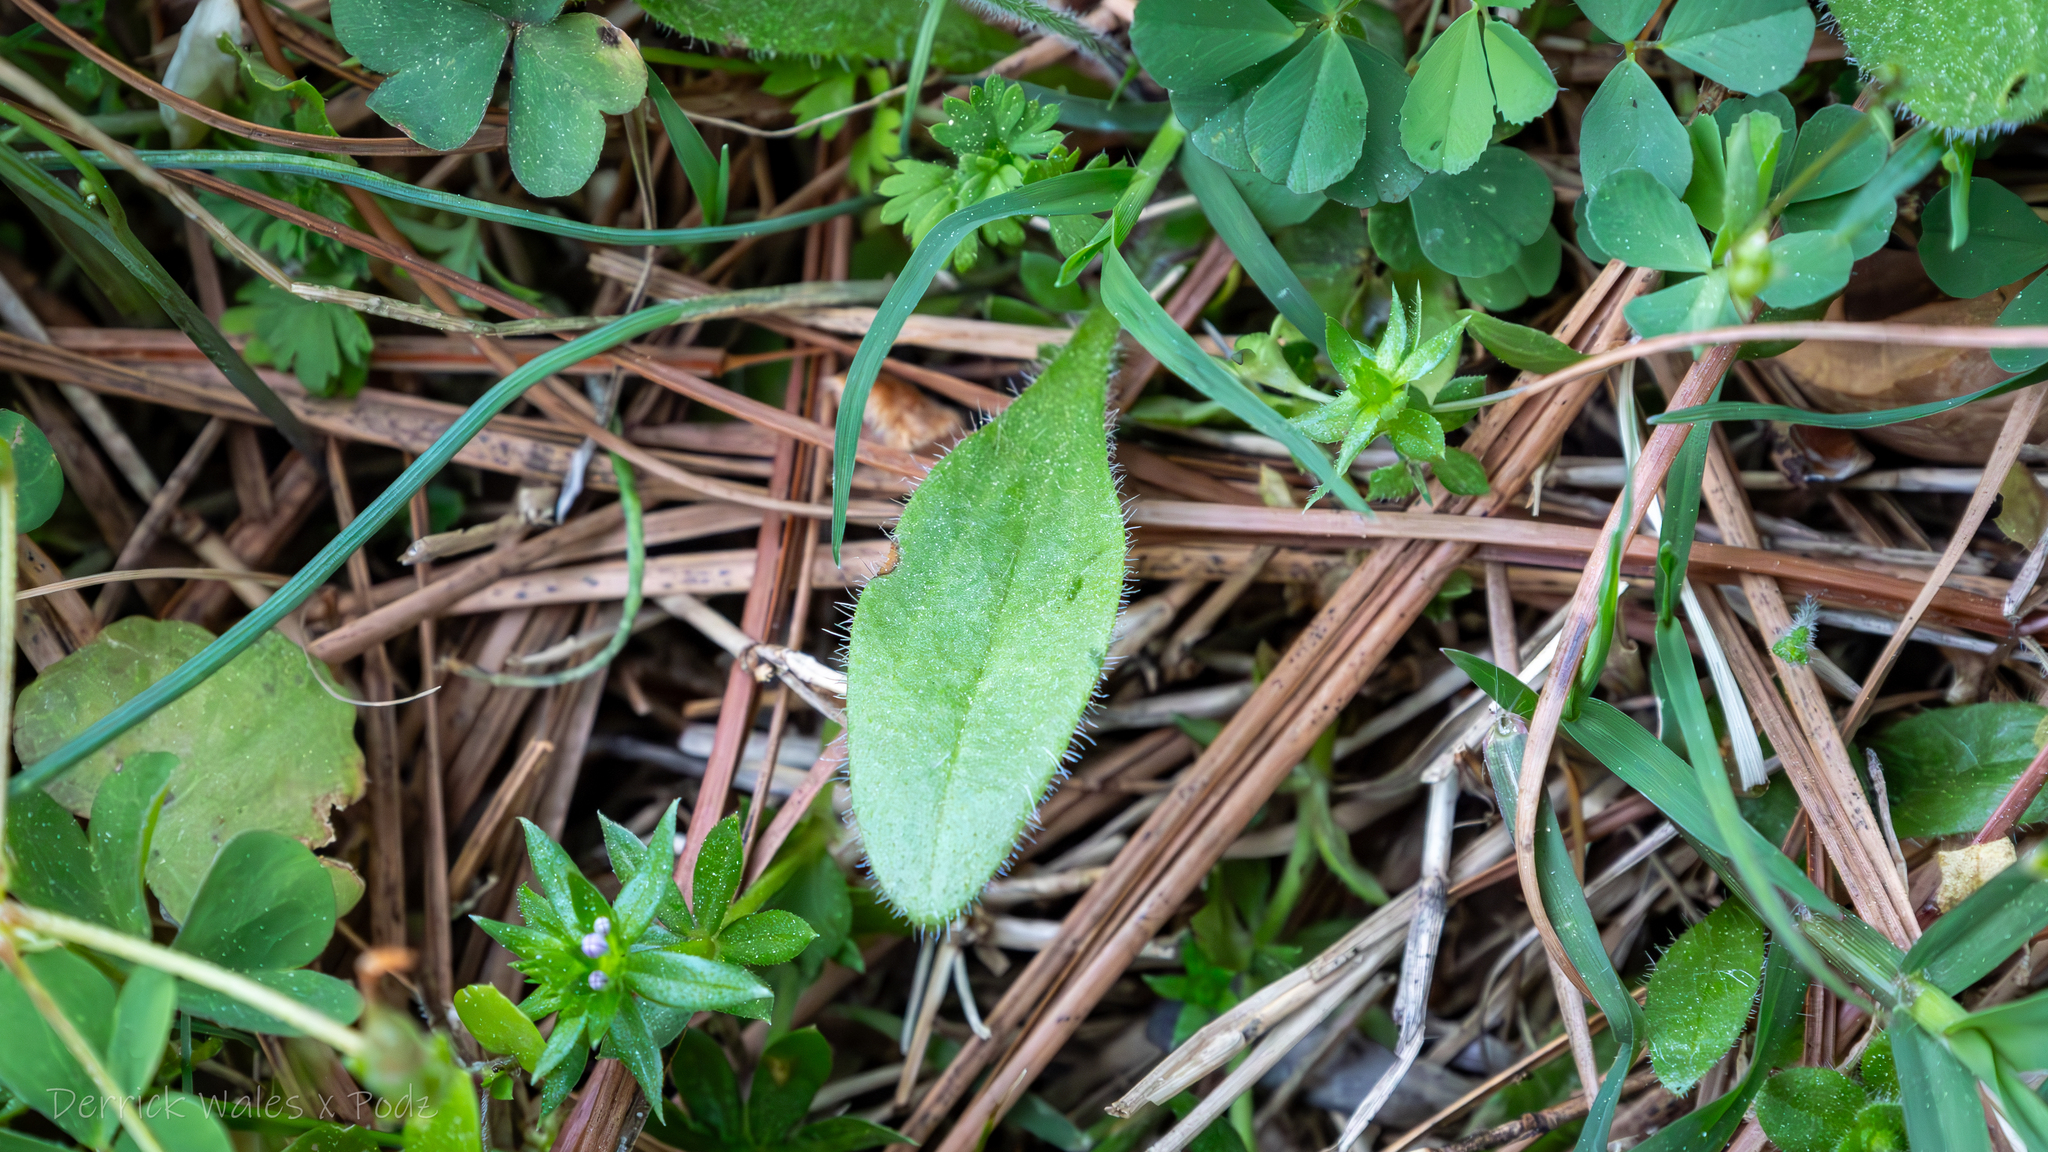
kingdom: Plantae
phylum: Tracheophyta
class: Magnoliopsida
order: Lamiales
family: Plantaginaceae
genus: Plantago
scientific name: Plantago virginica
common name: Hoary plantain
